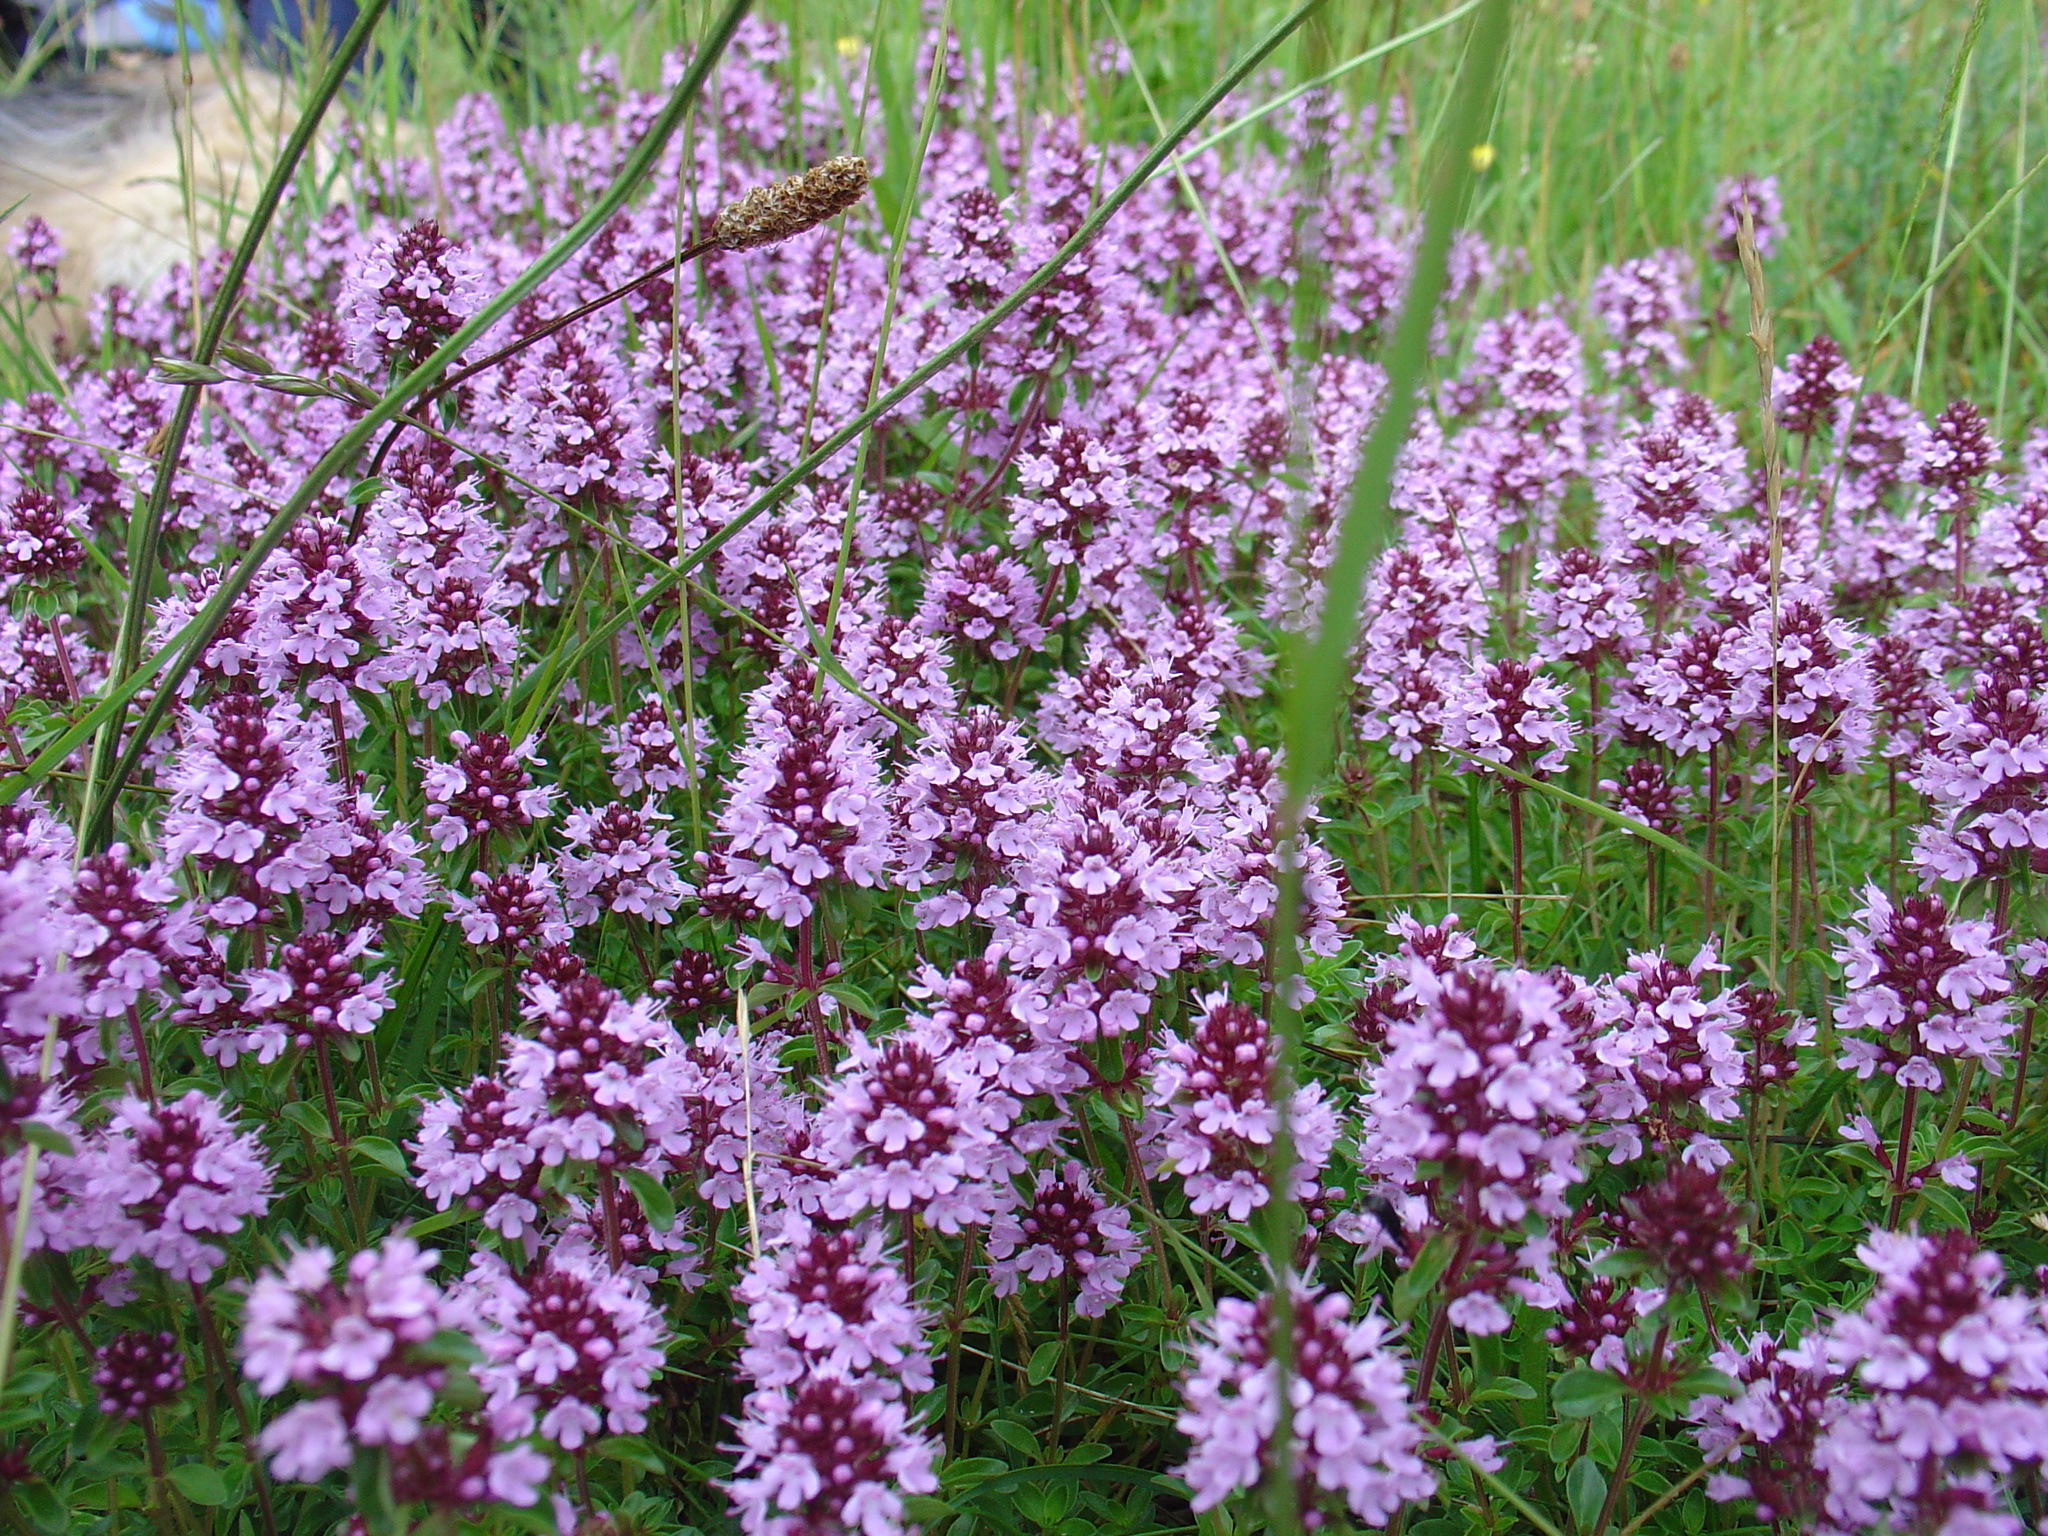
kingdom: Plantae
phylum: Tracheophyta
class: Magnoliopsida
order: Lamiales
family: Lamiaceae
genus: Thymus
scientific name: Thymus pulegioides
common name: Large thyme
